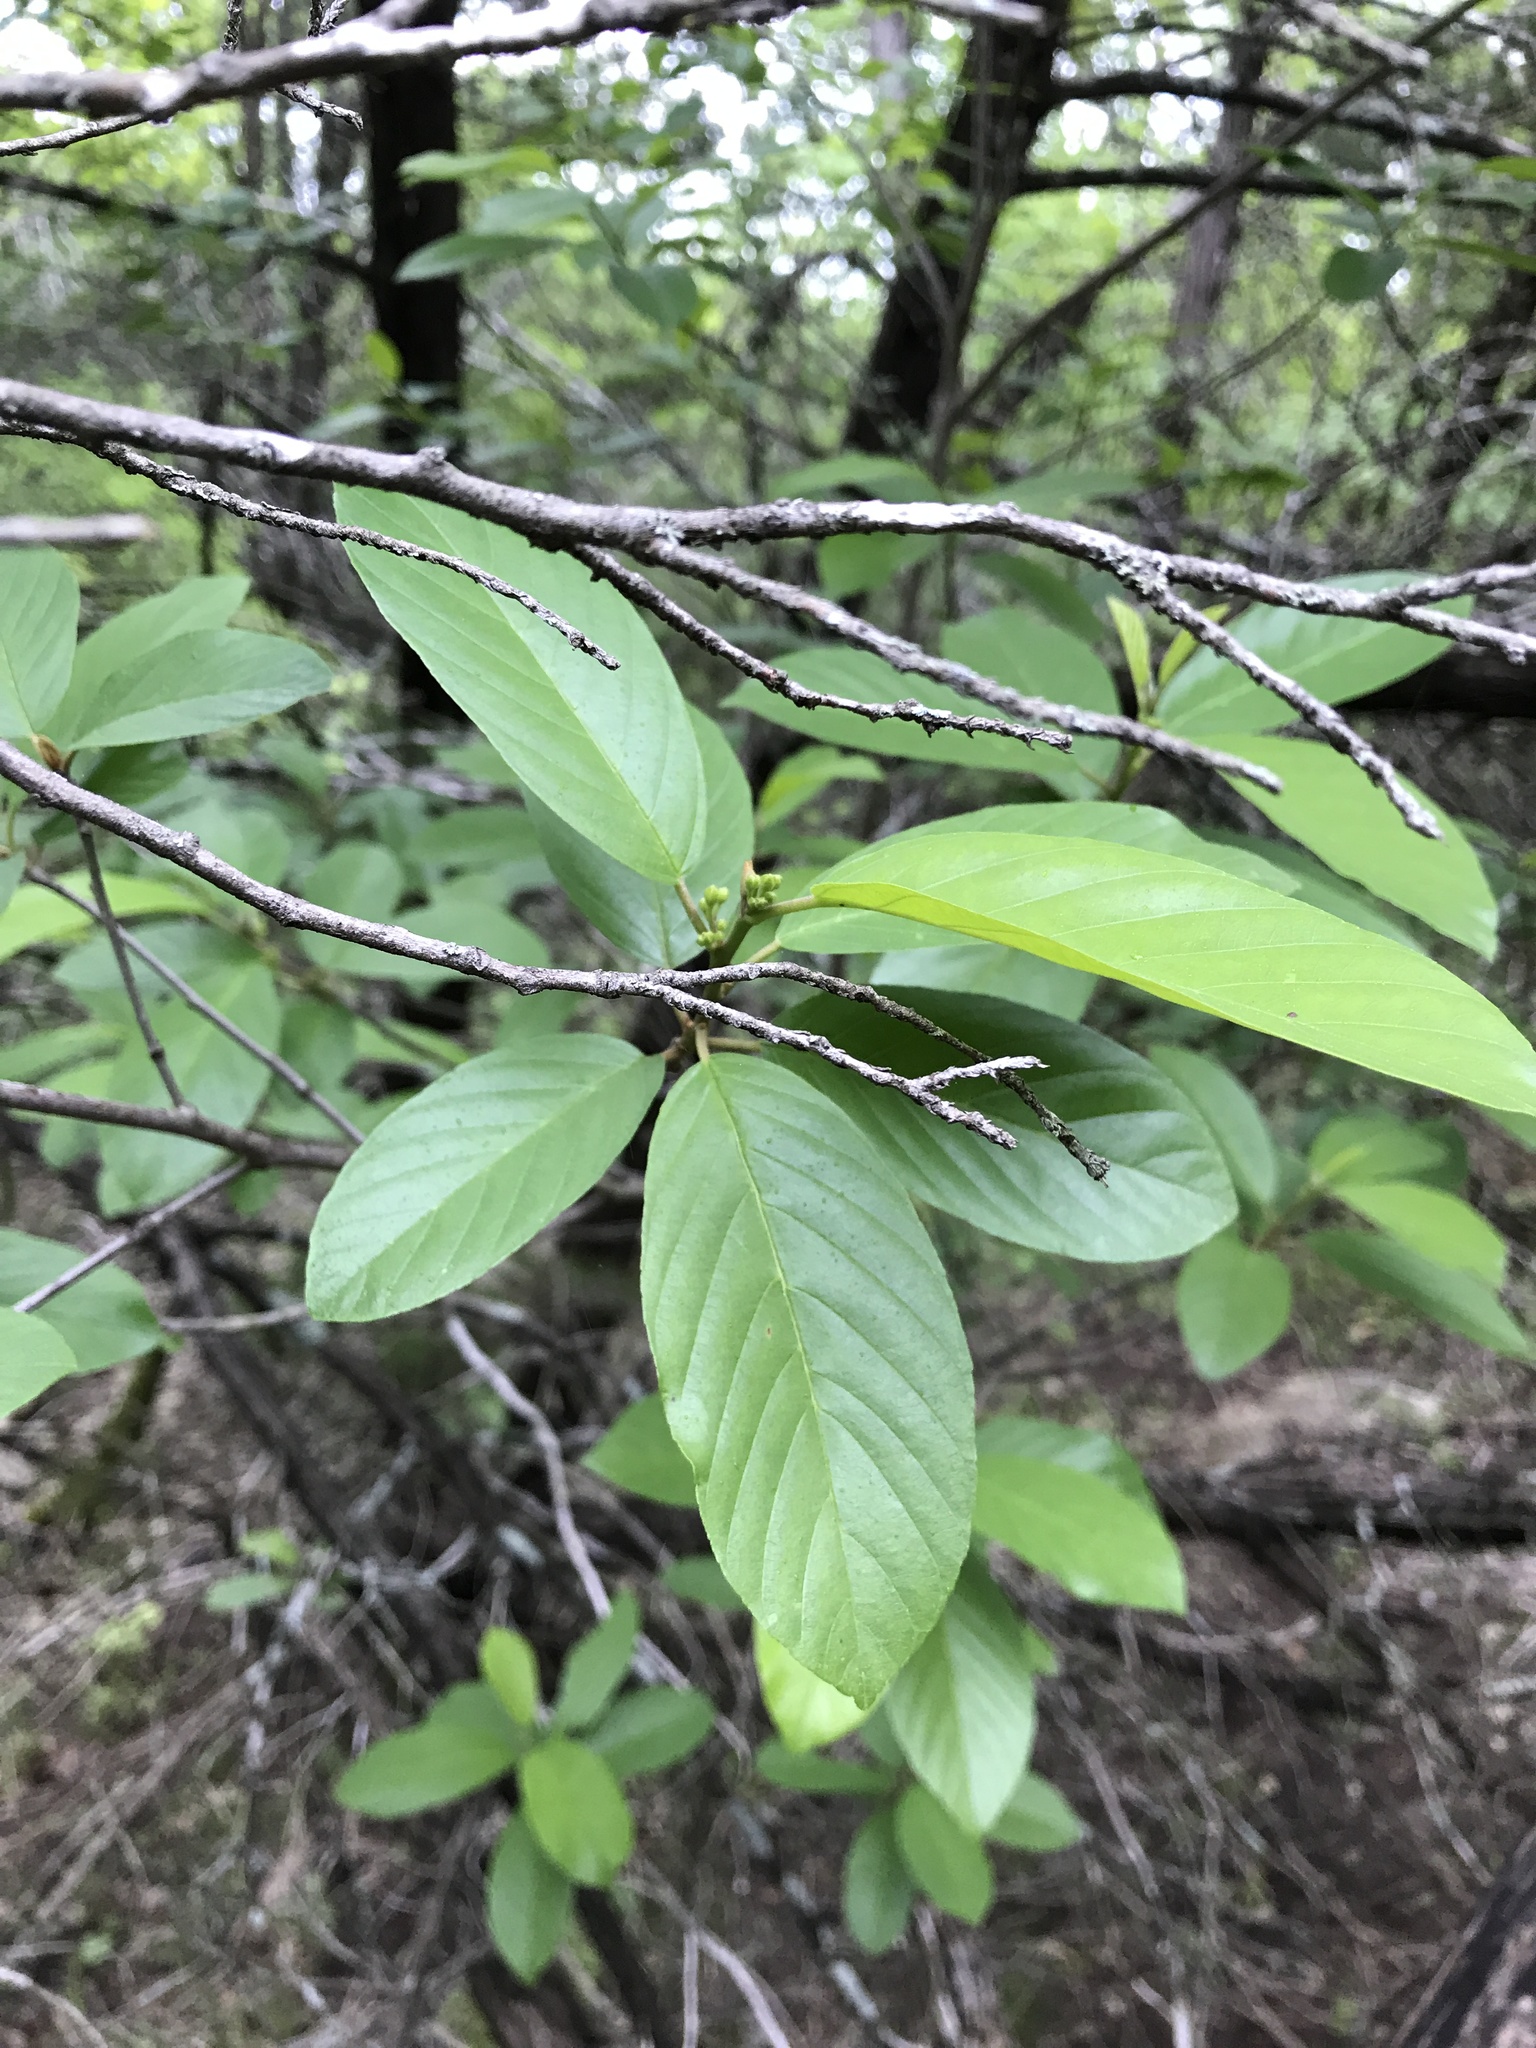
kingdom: Plantae
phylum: Tracheophyta
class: Magnoliopsida
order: Rosales
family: Rhamnaceae
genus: Frangula
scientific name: Frangula caroliniana
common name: Carolina buckthorn
